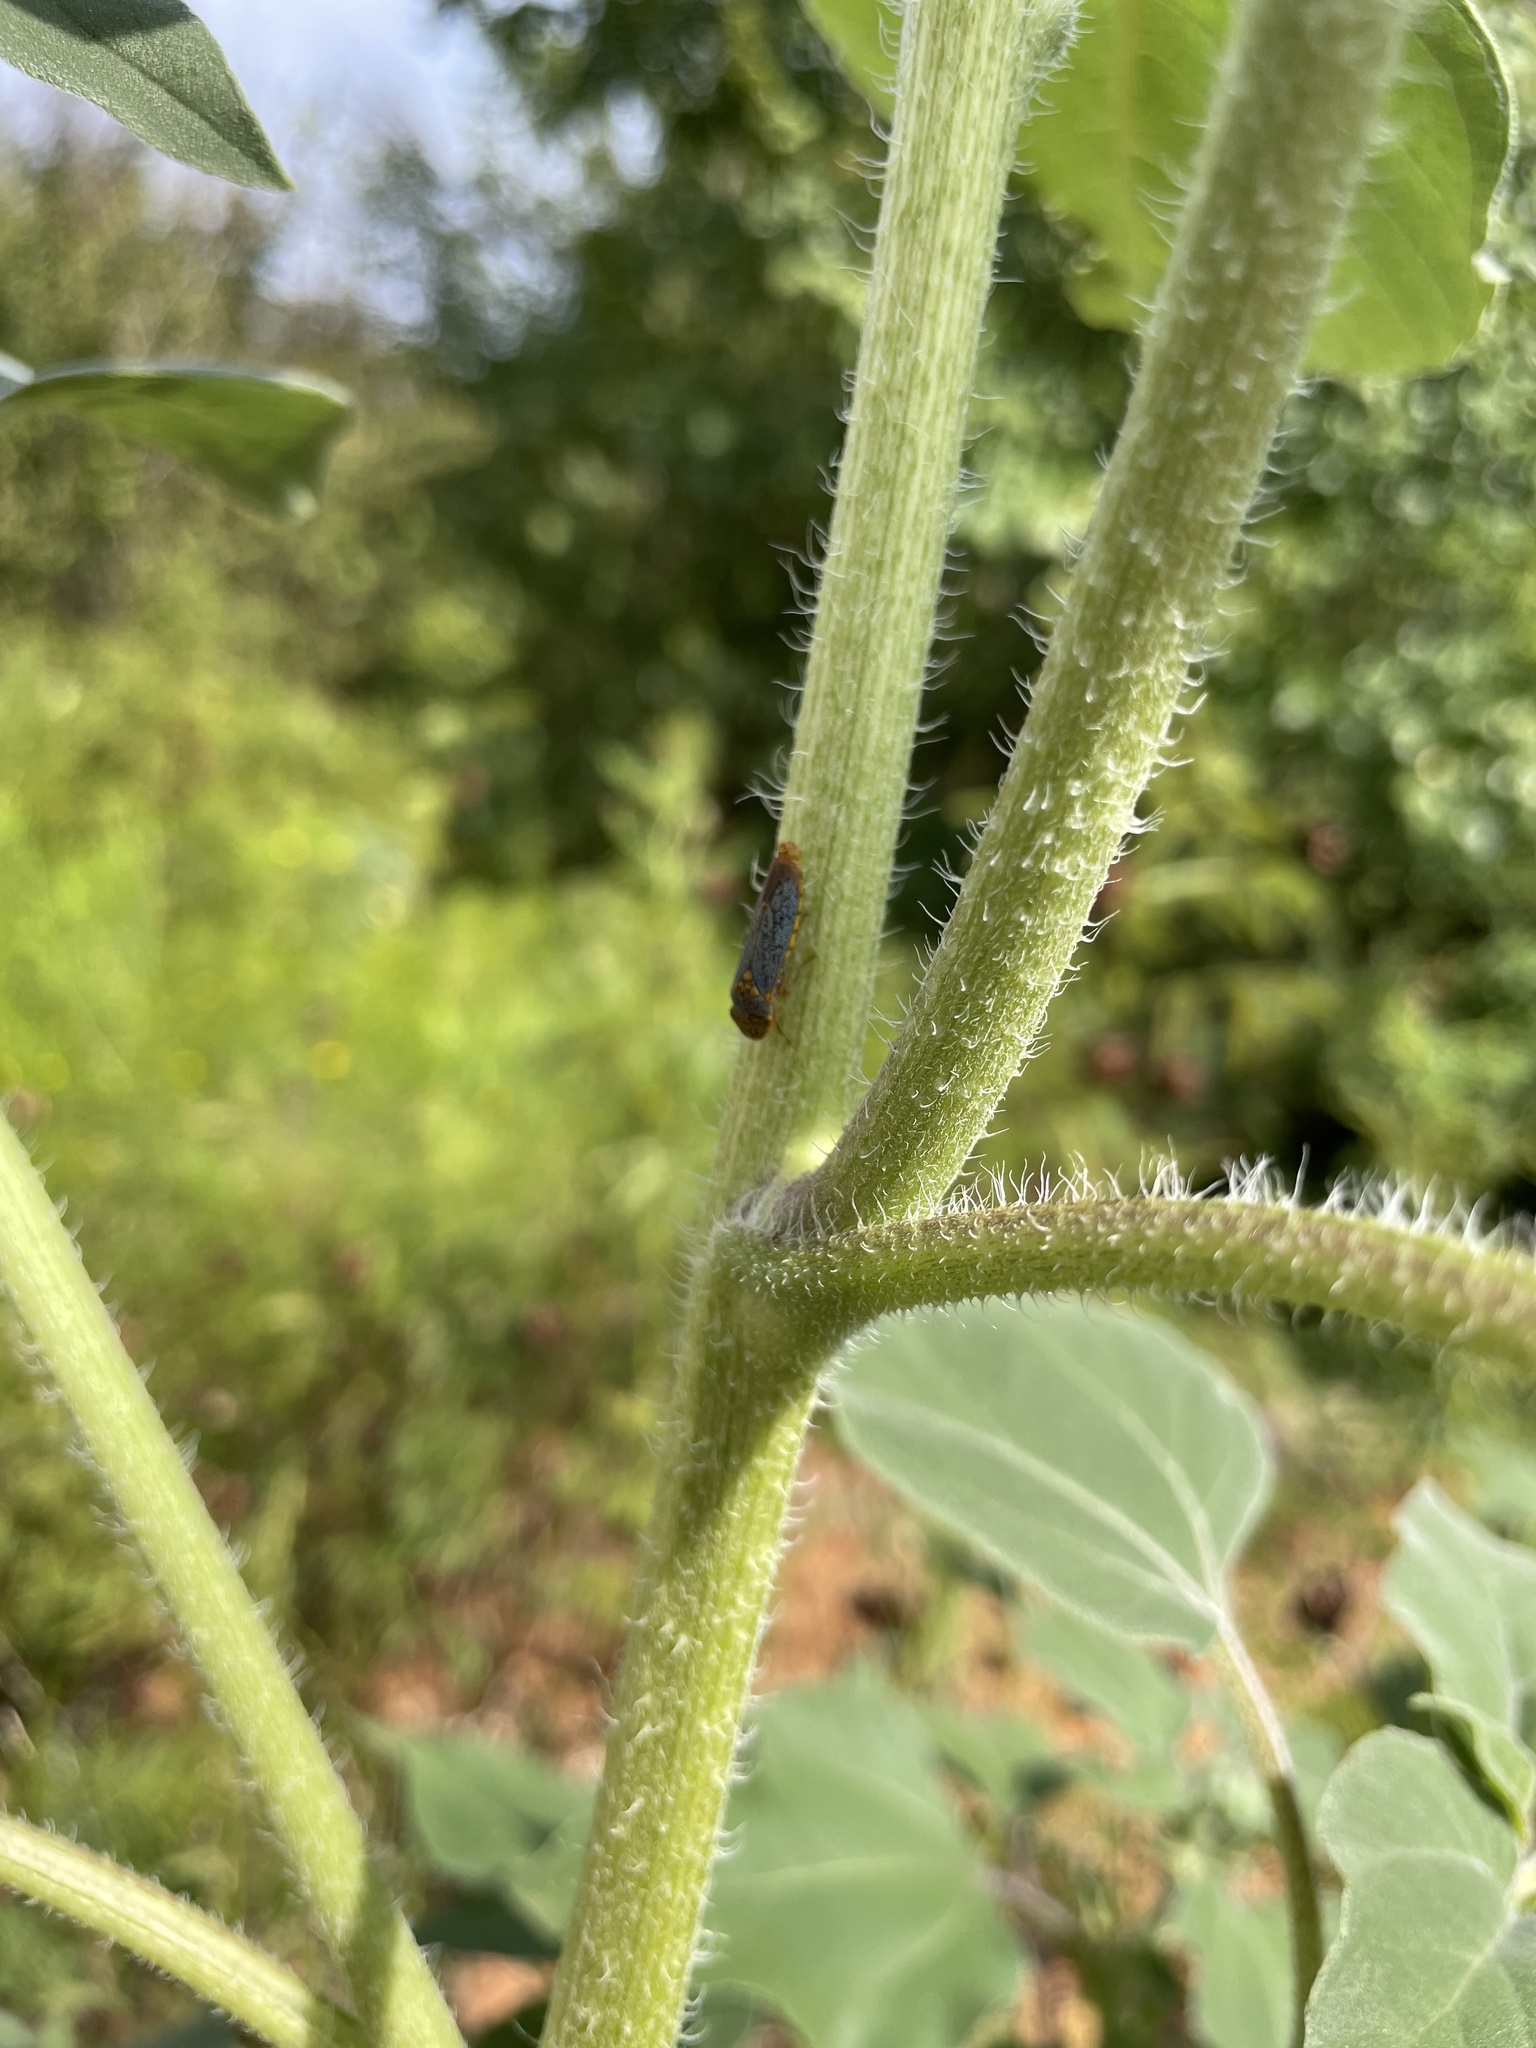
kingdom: Animalia
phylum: Arthropoda
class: Insecta
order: Hemiptera
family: Cicadellidae
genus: Oncometopia
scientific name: Oncometopia orbona
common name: Broad-headed sharpshooter
